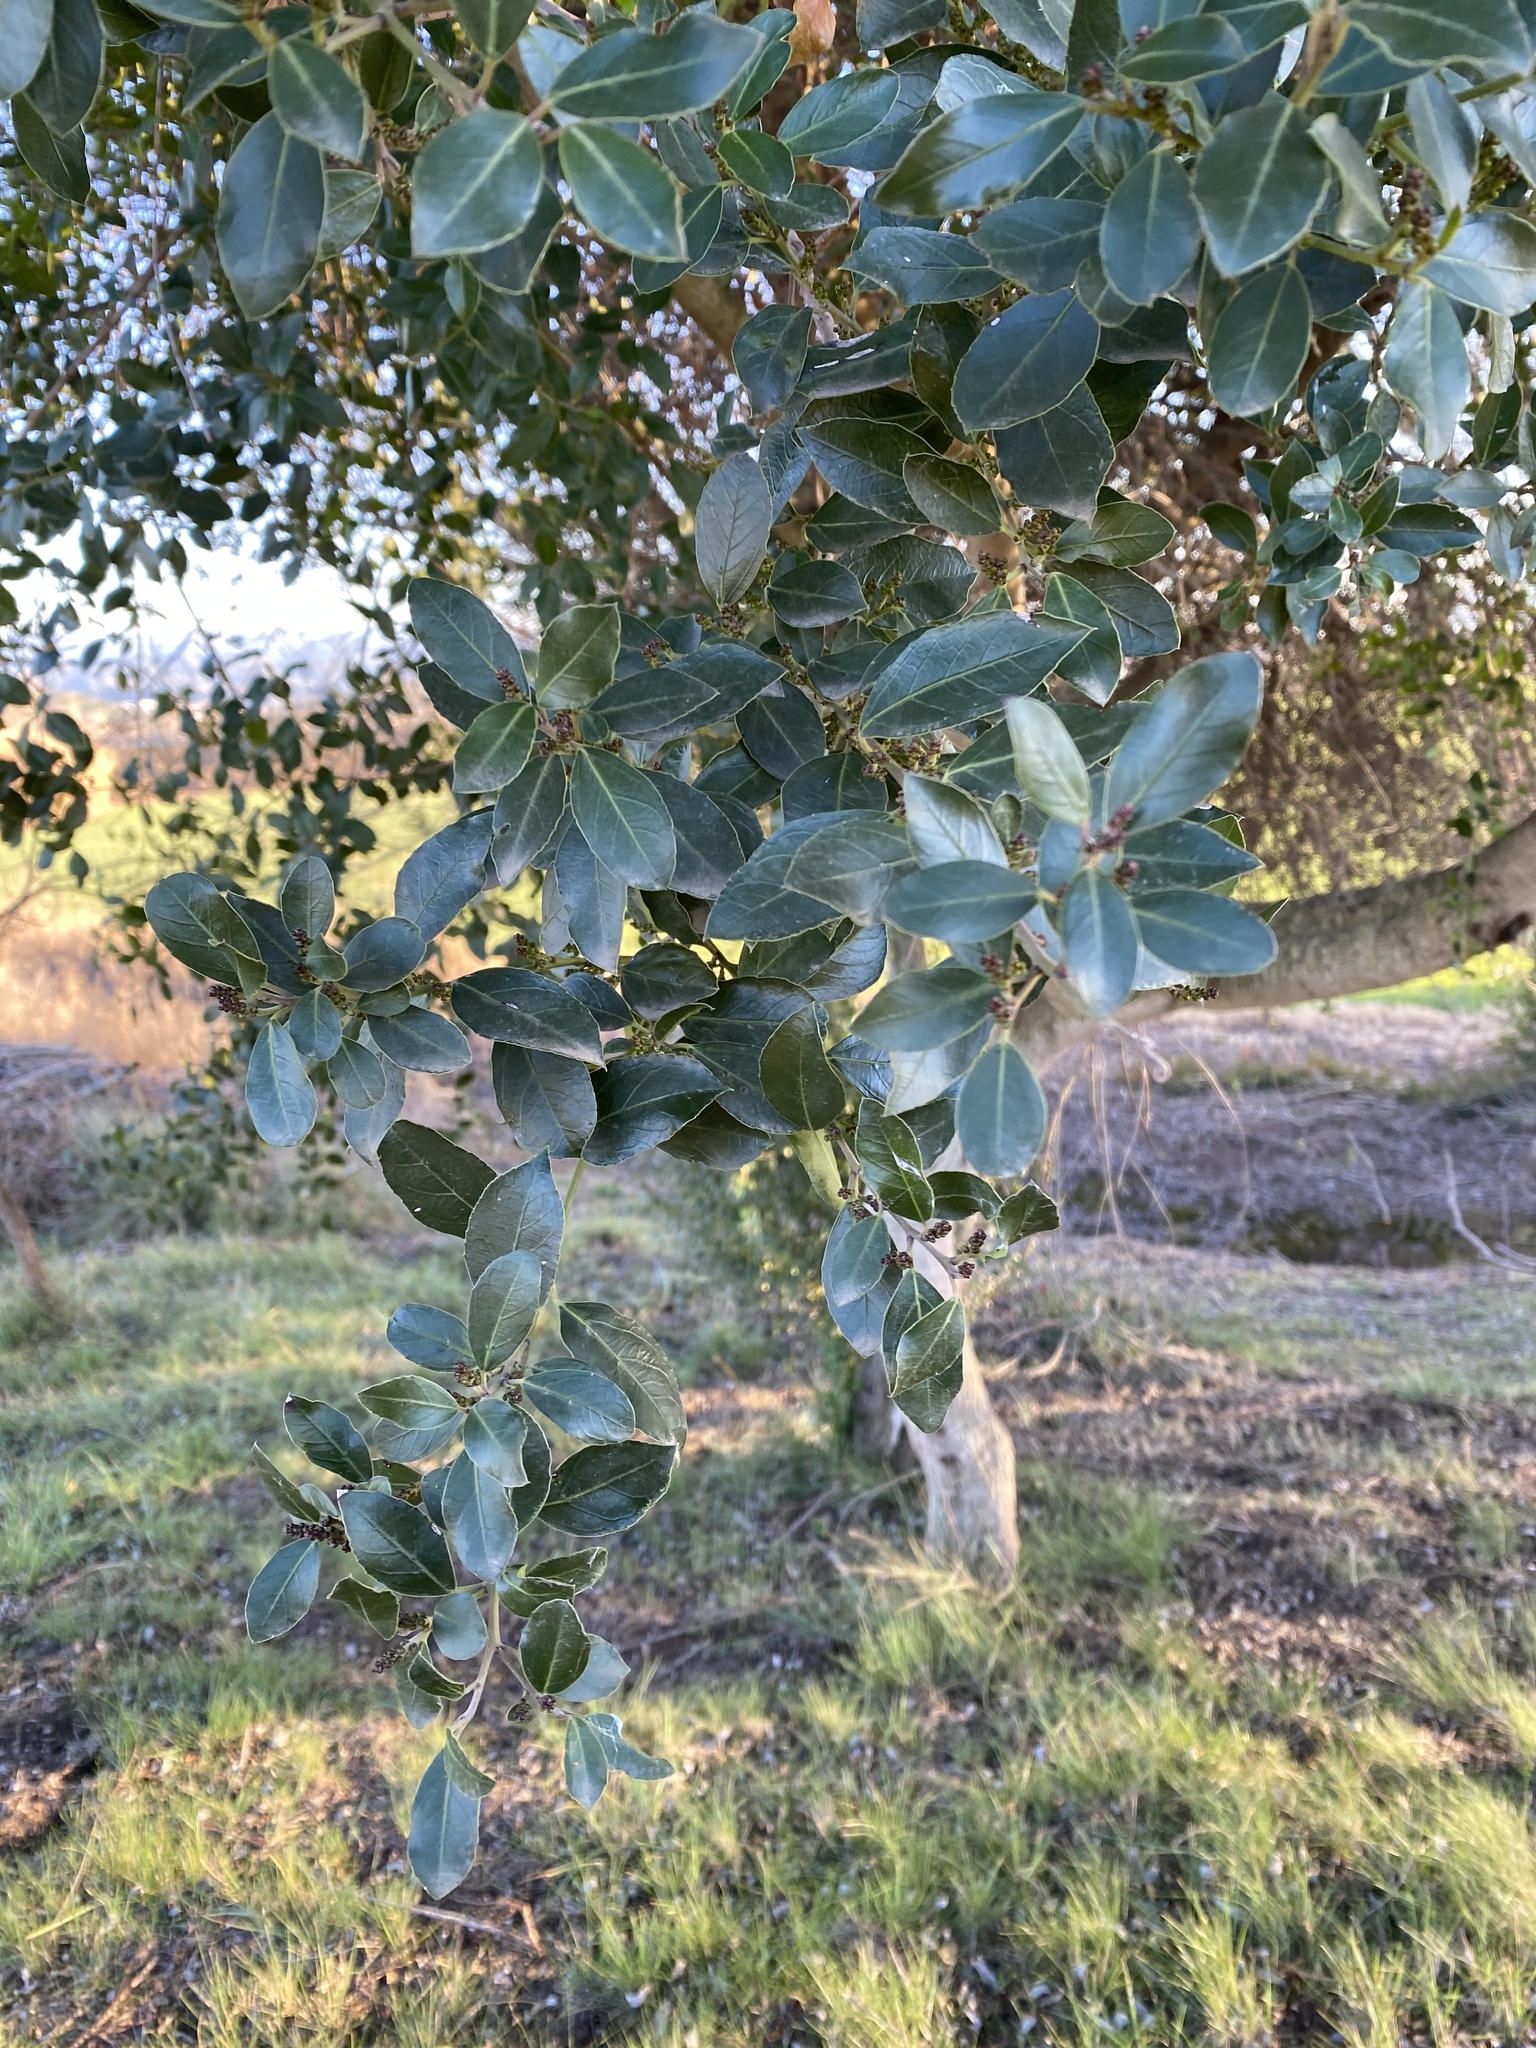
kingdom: Plantae
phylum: Tracheophyta
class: Magnoliopsida
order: Rosales
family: Rhamnaceae
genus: Rhamnus
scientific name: Rhamnus alaternus
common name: Mediterranean buckthorn
